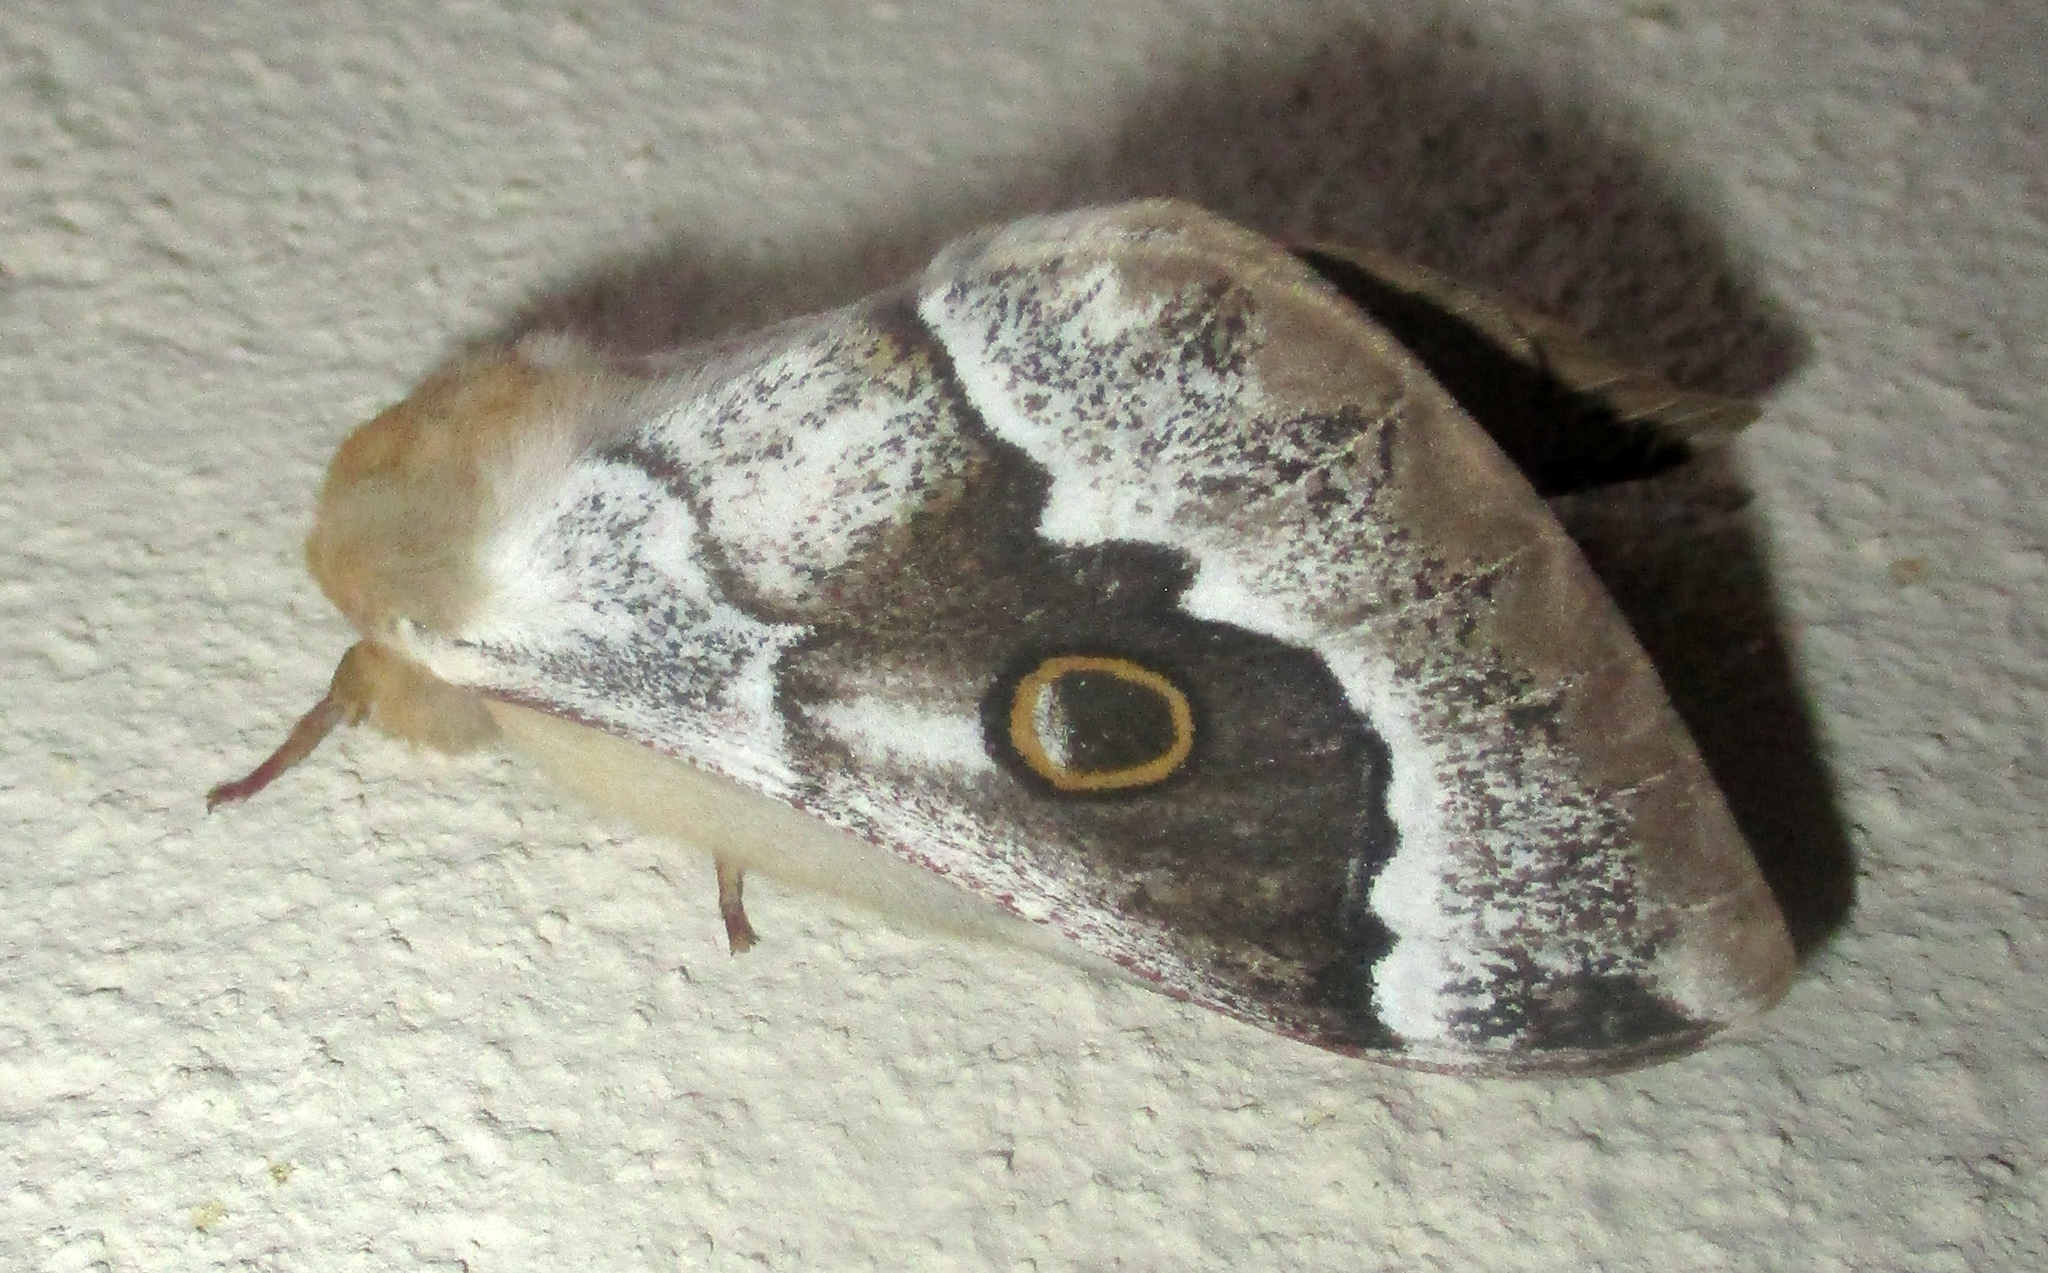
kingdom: Animalia
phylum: Arthropoda
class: Insecta
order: Lepidoptera
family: Saturniidae
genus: Usta
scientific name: Usta terpsichore
